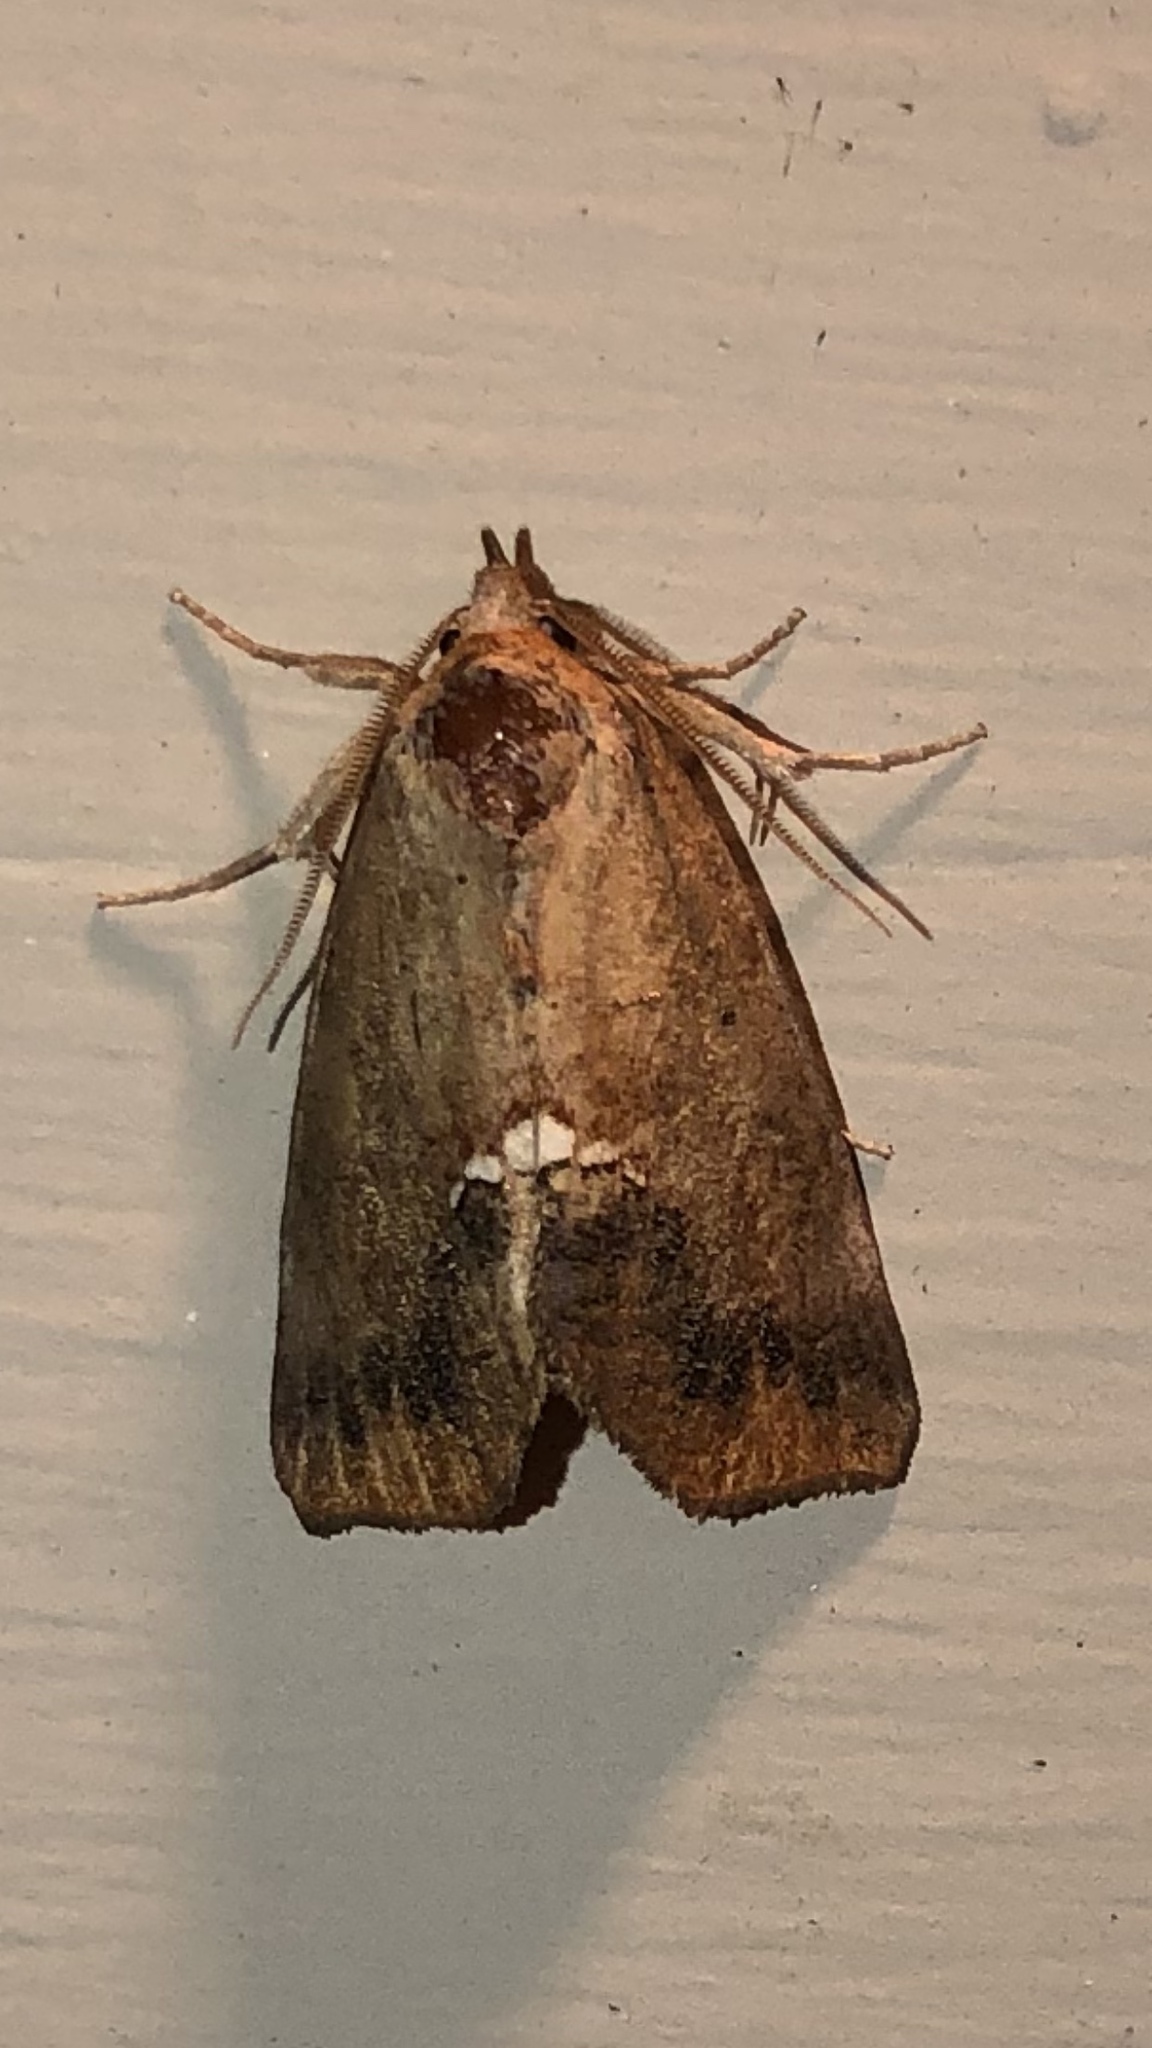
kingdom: Animalia
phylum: Arthropoda
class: Insecta
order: Lepidoptera
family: Erebidae
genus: Hypsoropha
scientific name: Hypsoropha hormos
